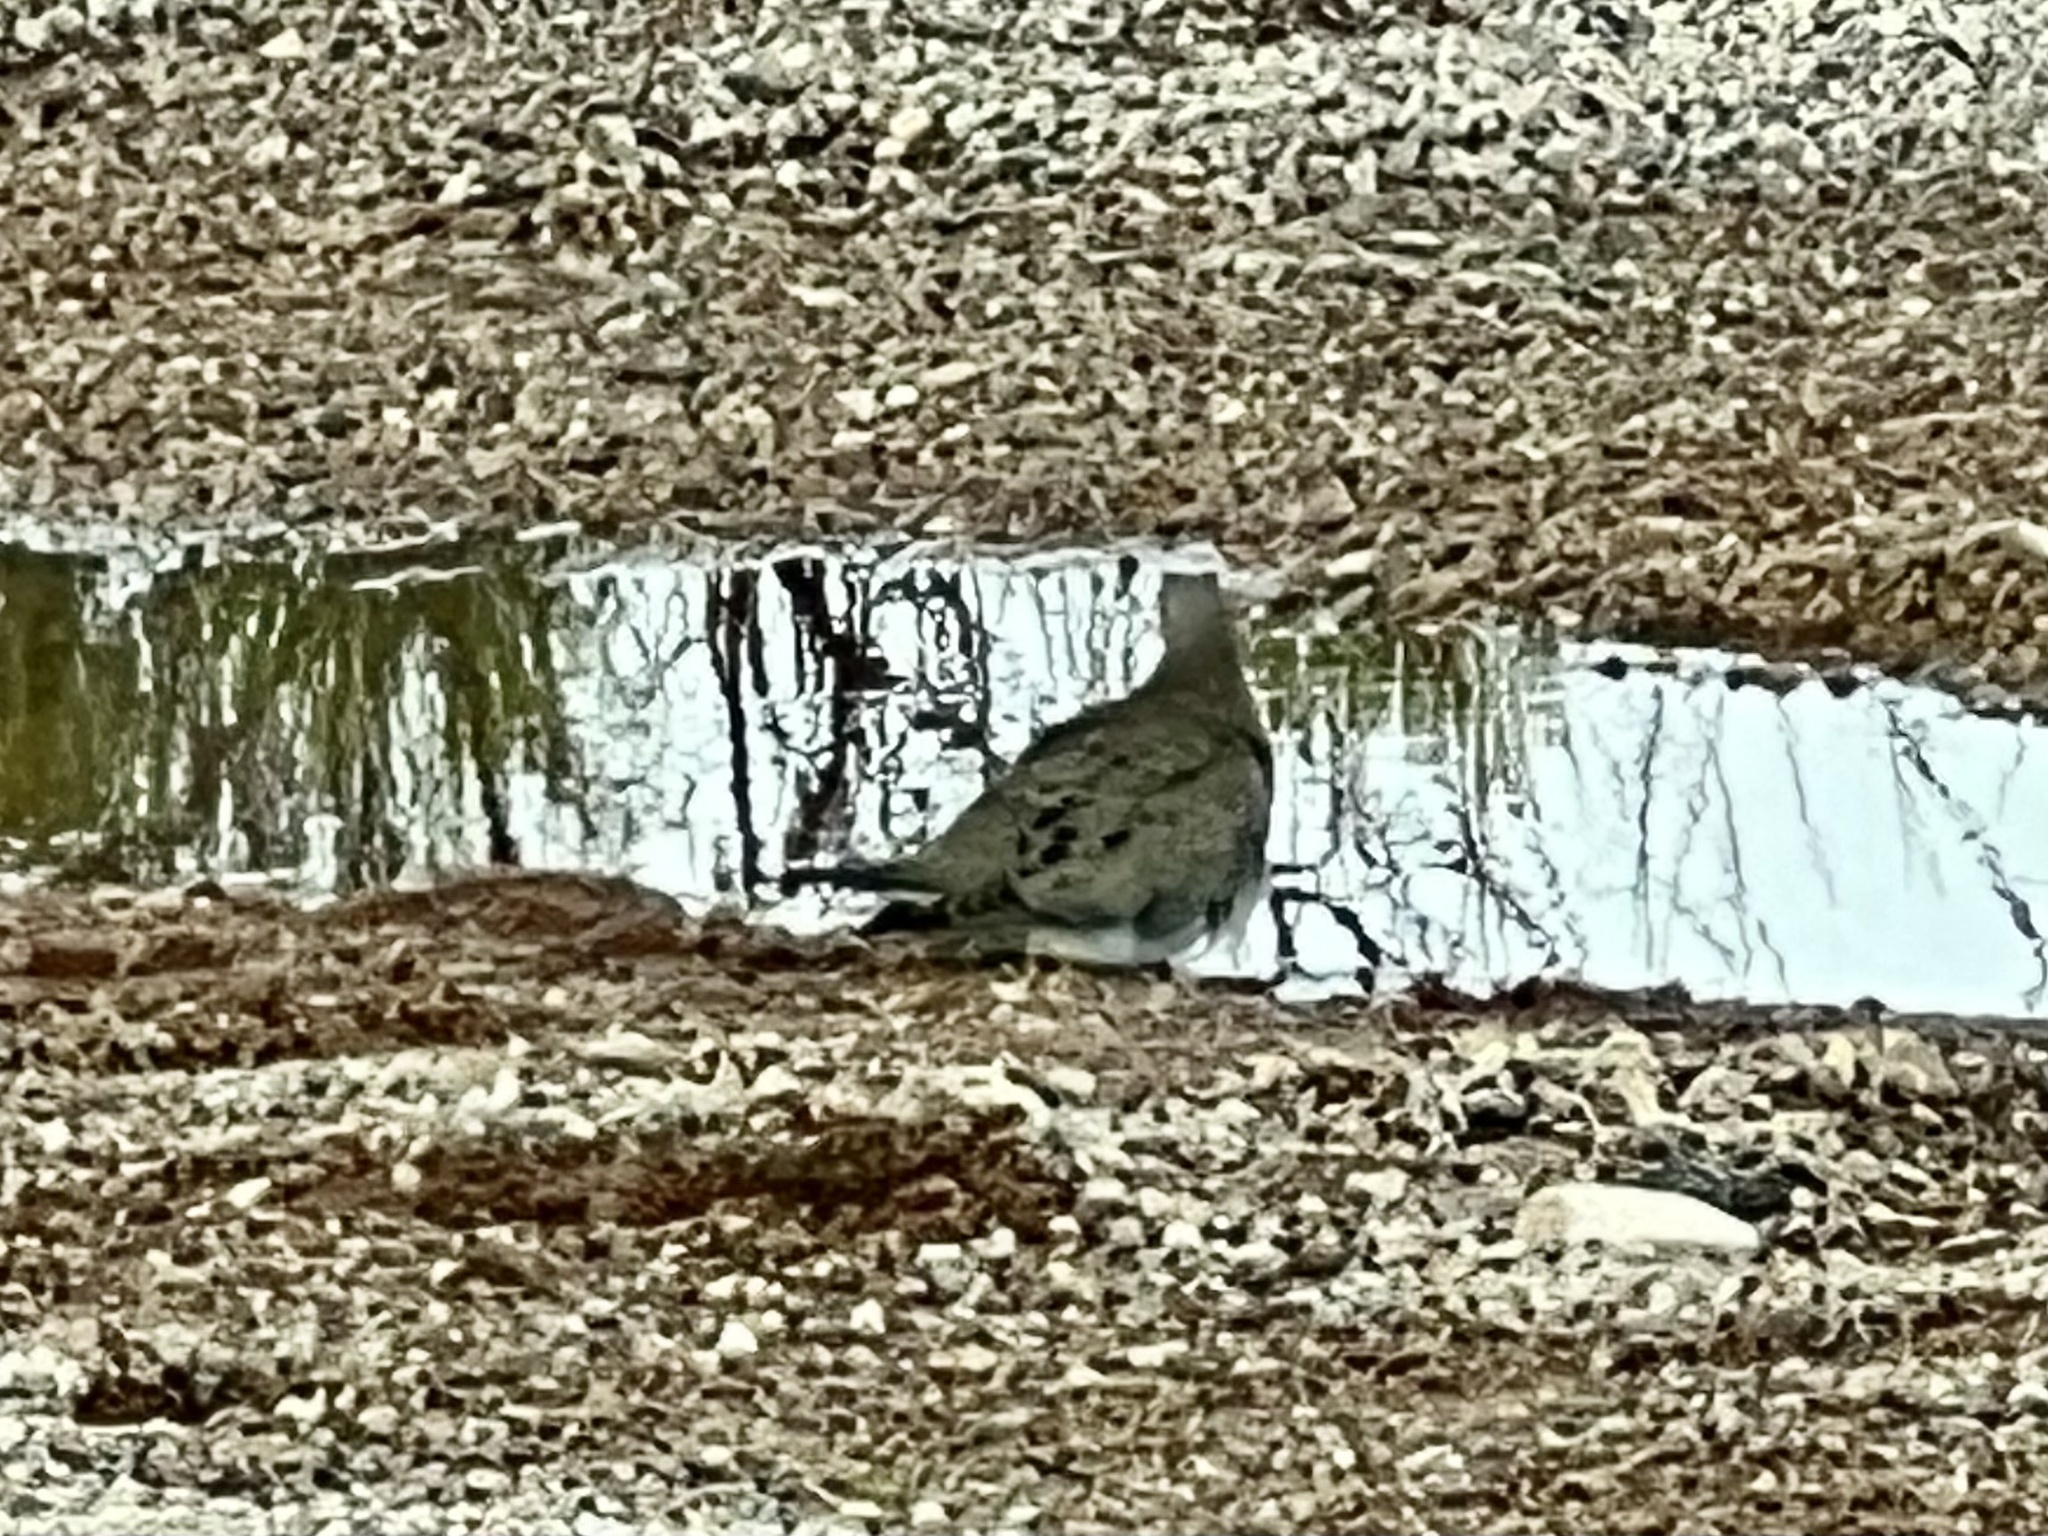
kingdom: Animalia
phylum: Chordata
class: Aves
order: Columbiformes
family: Columbidae
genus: Zenaida
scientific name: Zenaida macroura
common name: Mourning dove
